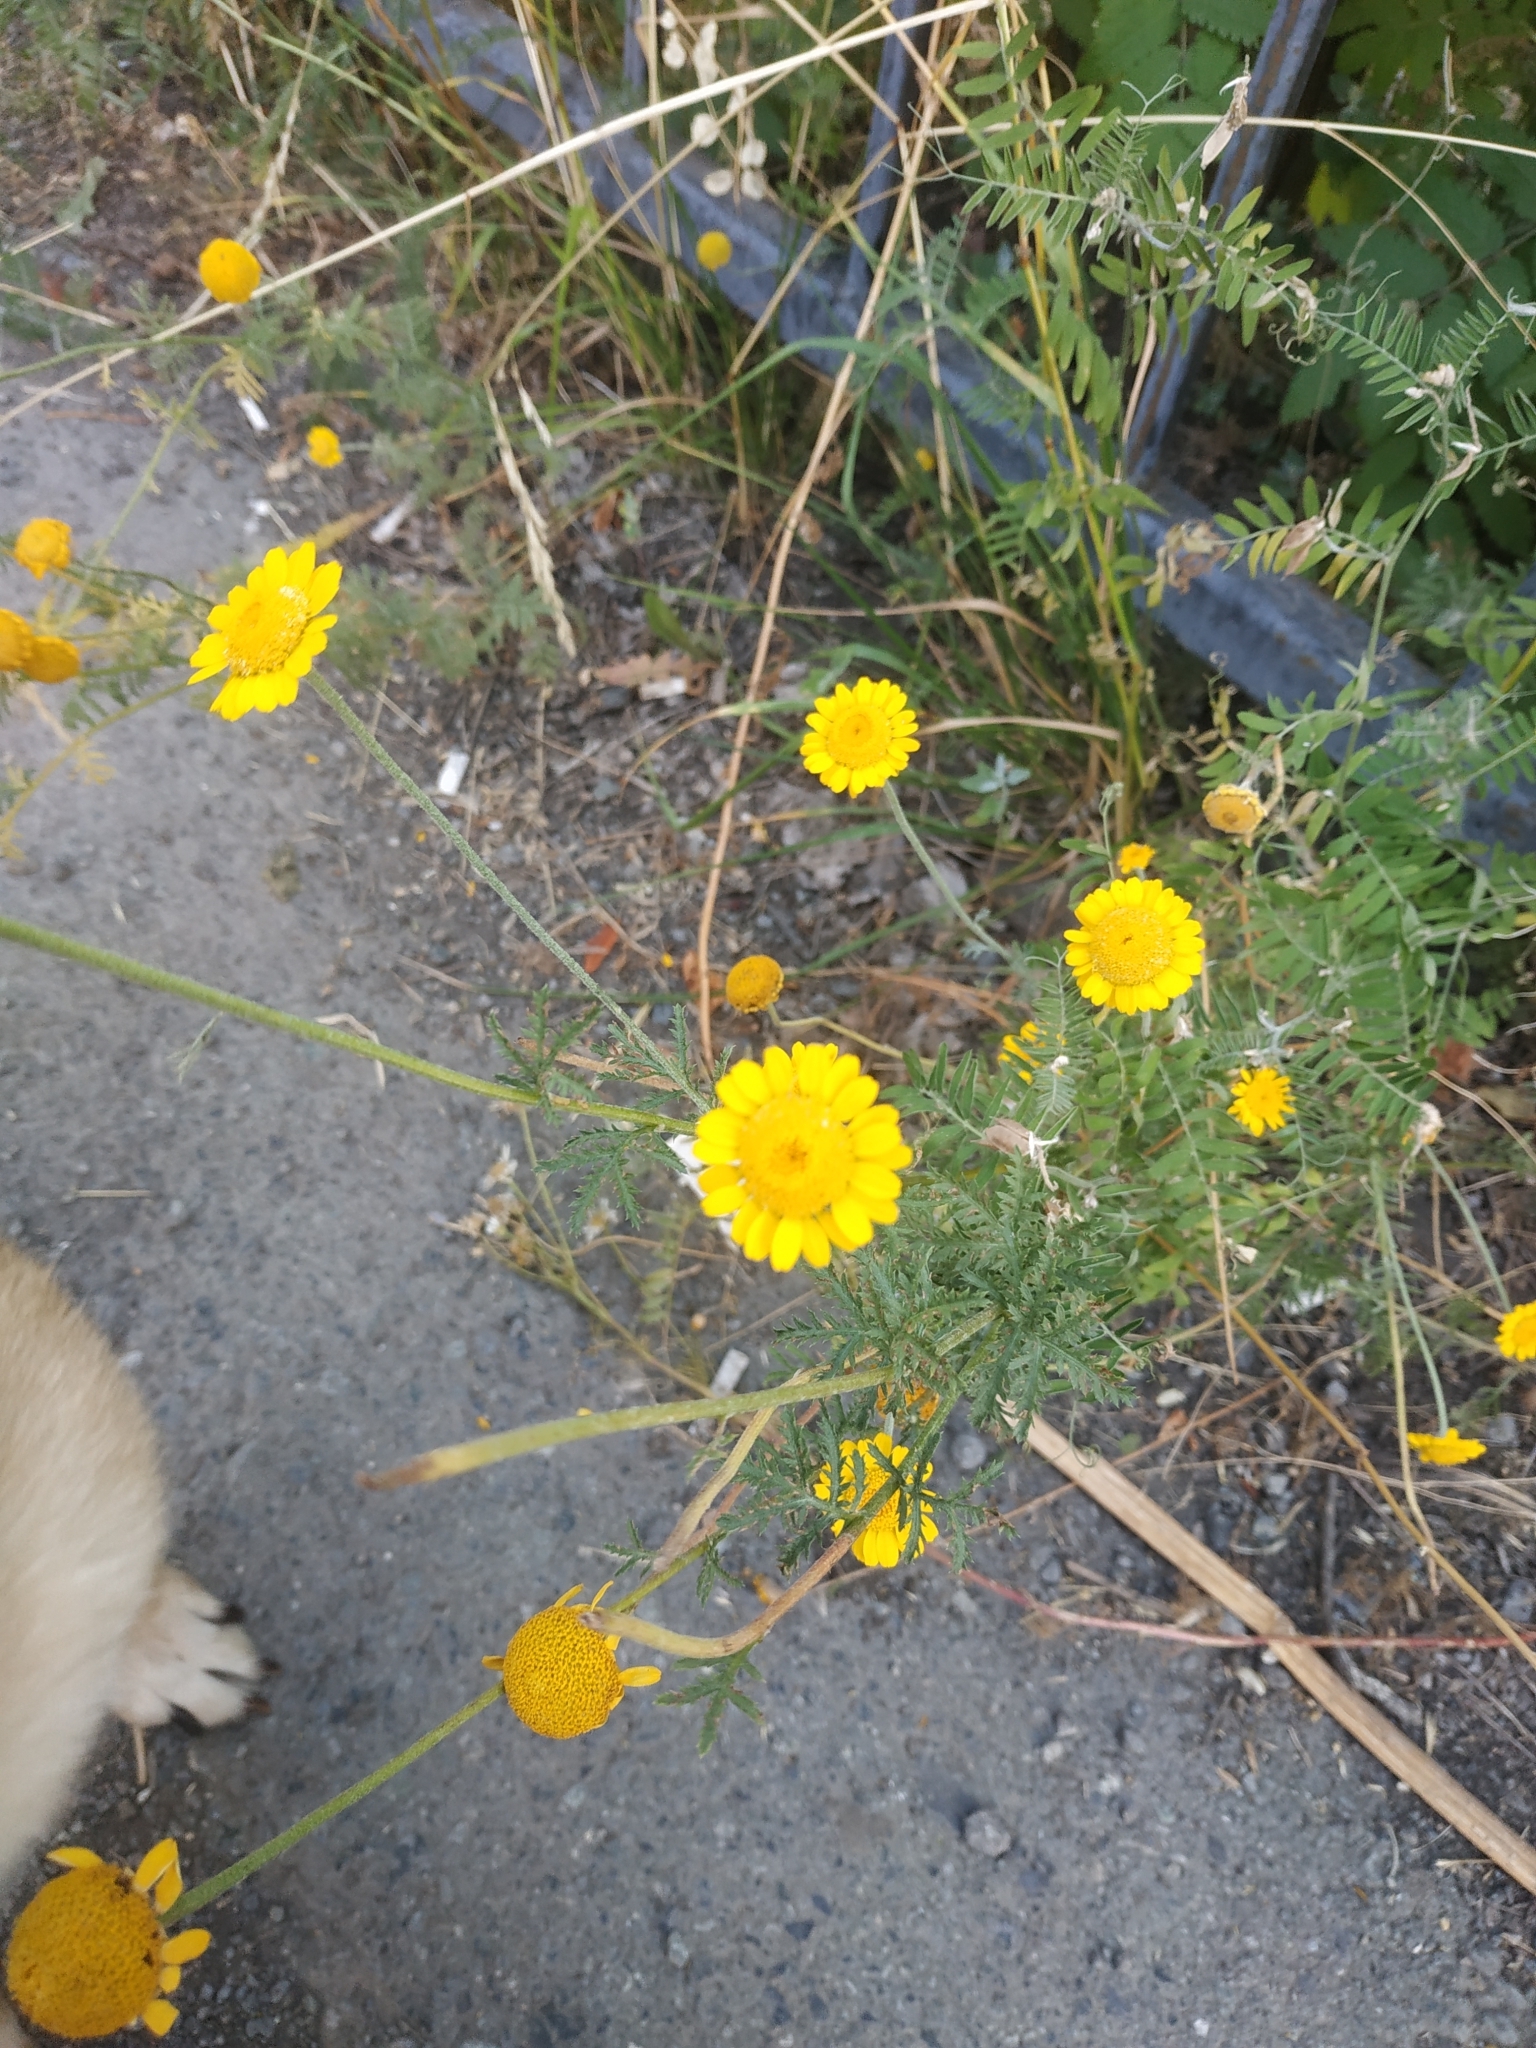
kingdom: Plantae
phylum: Tracheophyta
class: Magnoliopsida
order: Asterales
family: Asteraceae
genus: Cota
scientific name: Cota tinctoria
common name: Golden chamomile
